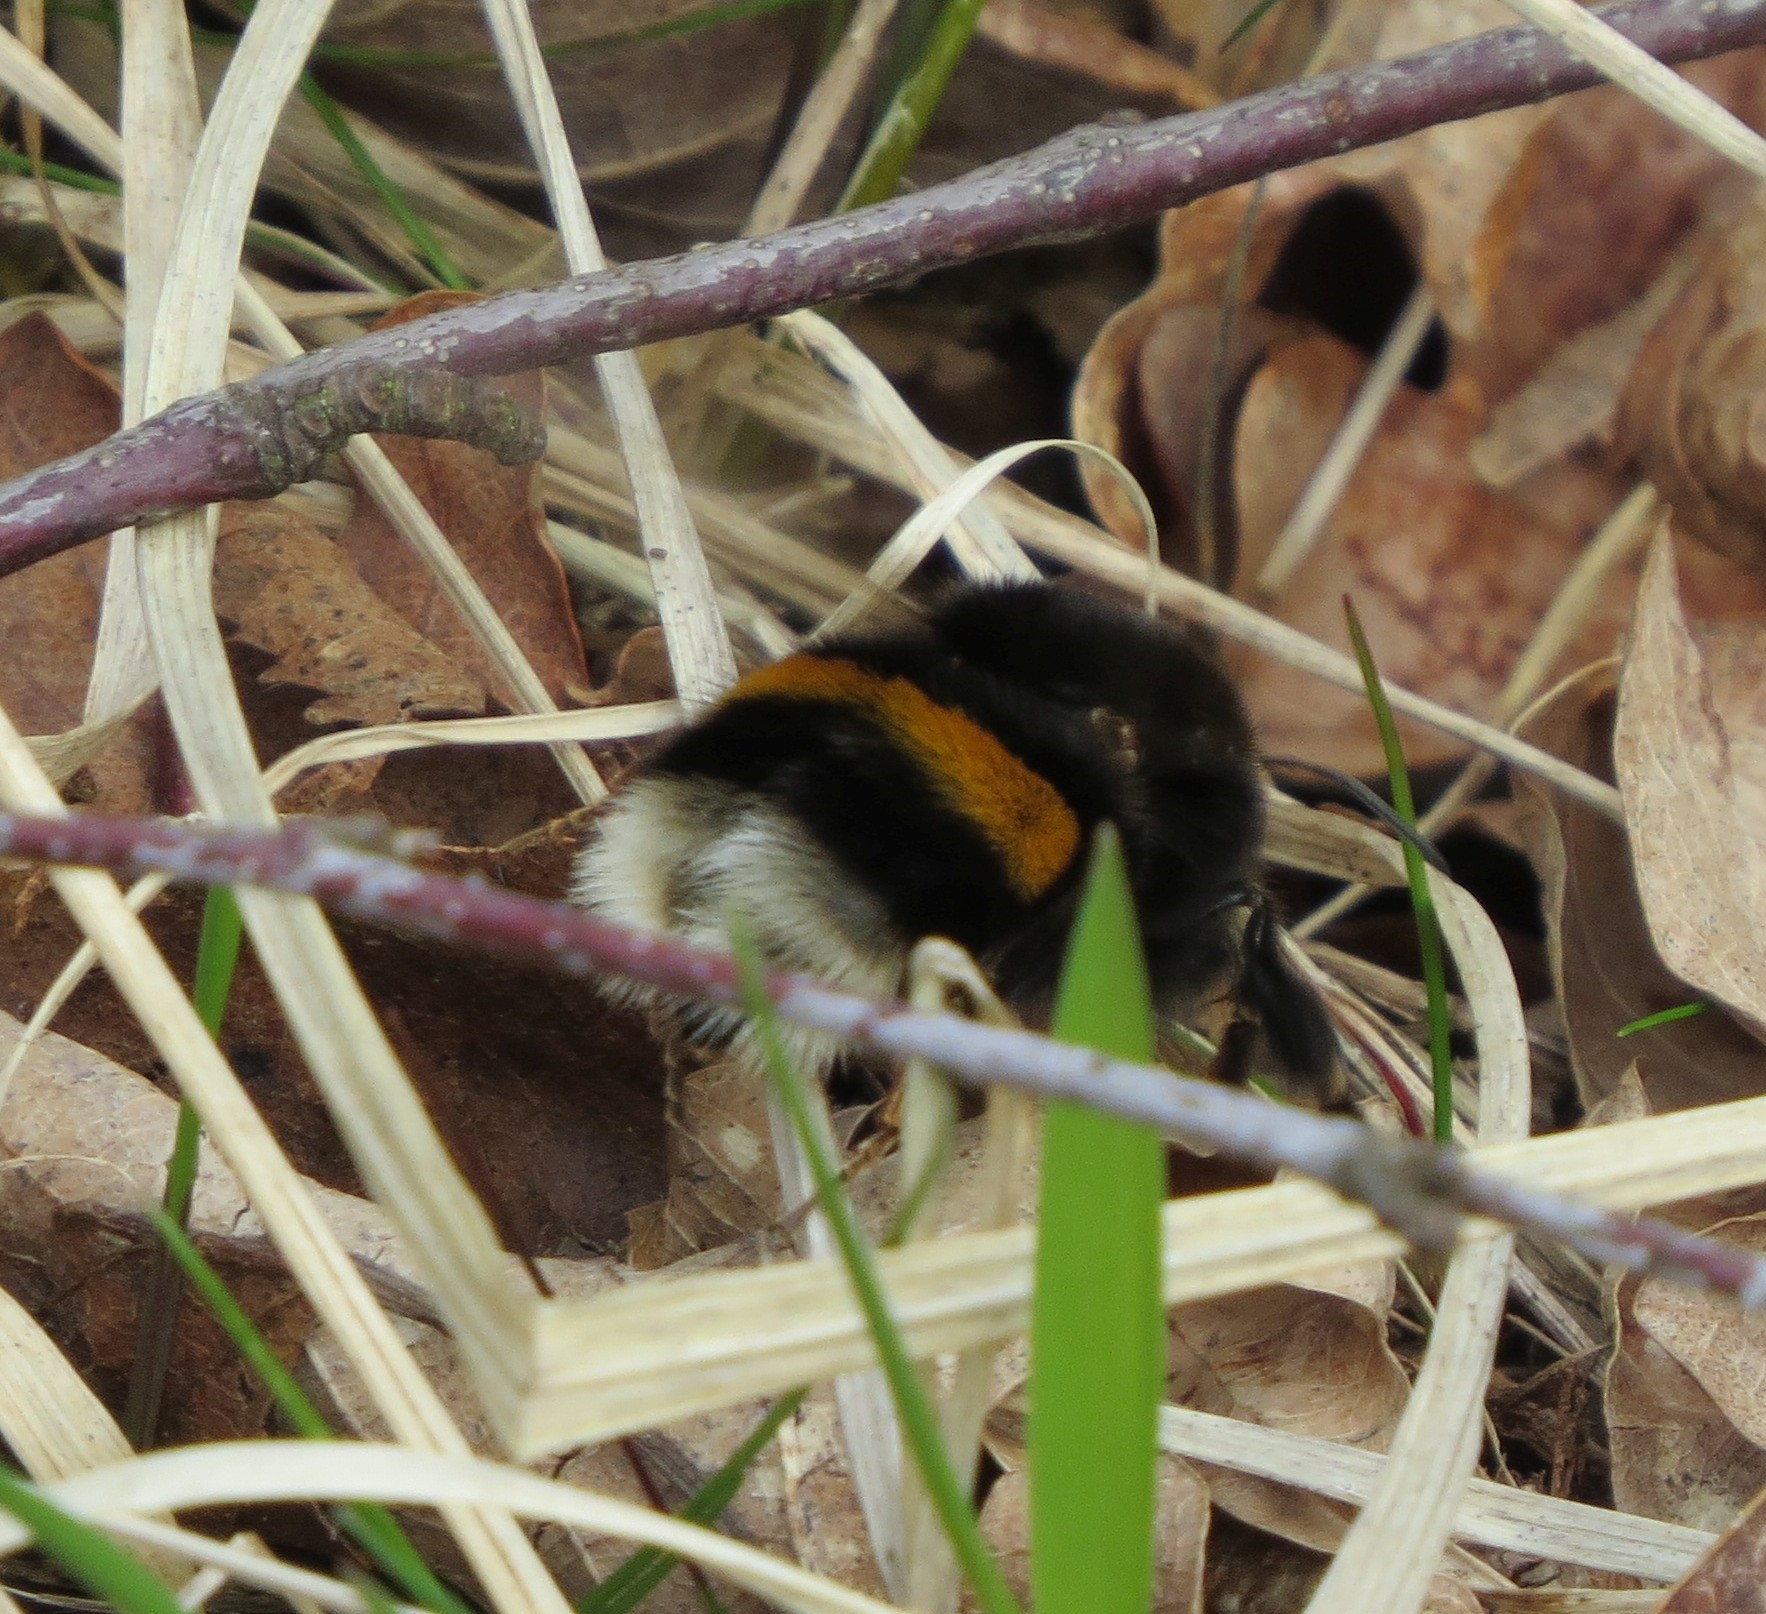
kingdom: Animalia
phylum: Arthropoda
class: Insecta
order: Hymenoptera
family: Apidae
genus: Bombus
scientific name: Bombus terrestris
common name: Buff-tailed bumblebee
